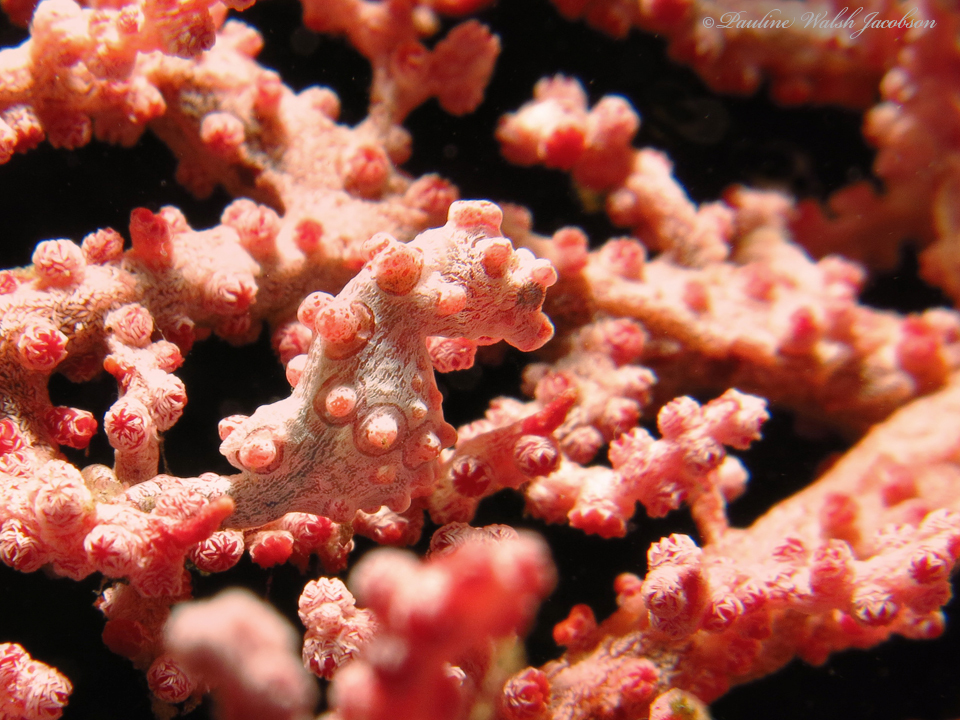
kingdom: Animalia
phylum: Chordata
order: Syngnathiformes
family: Syngnathidae
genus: Hippocampus
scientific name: Hippocampus bargibanti
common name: Bargibant's seahorse
